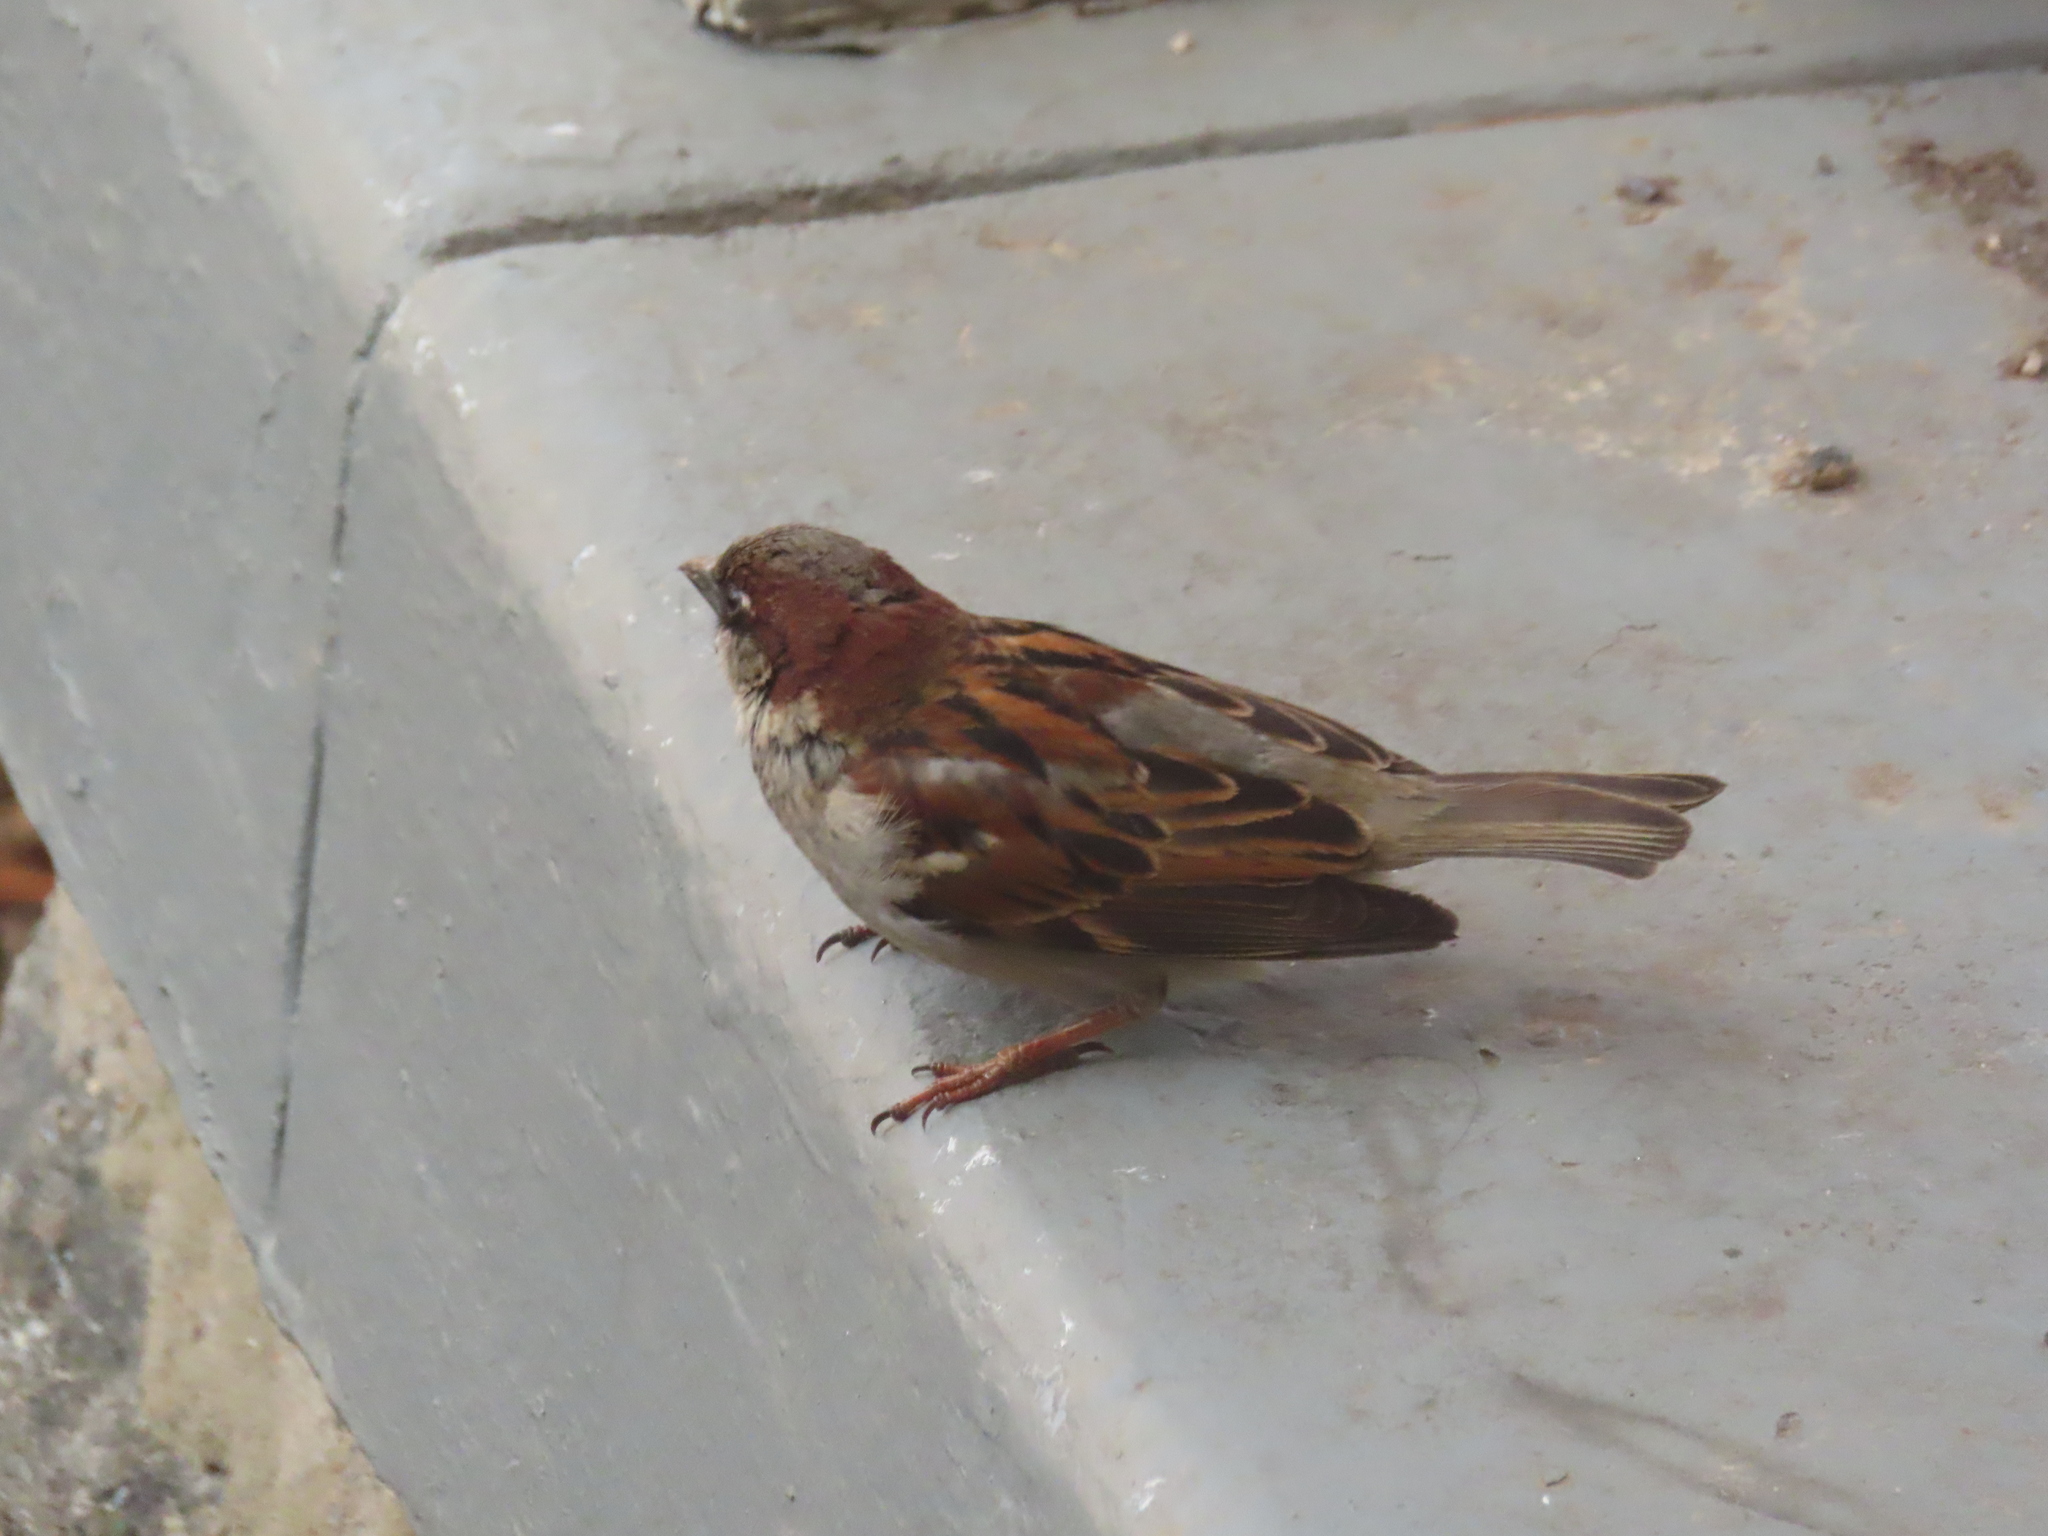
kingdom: Animalia
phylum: Chordata
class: Aves
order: Passeriformes
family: Passeridae
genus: Passer
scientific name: Passer domesticus
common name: House sparrow
